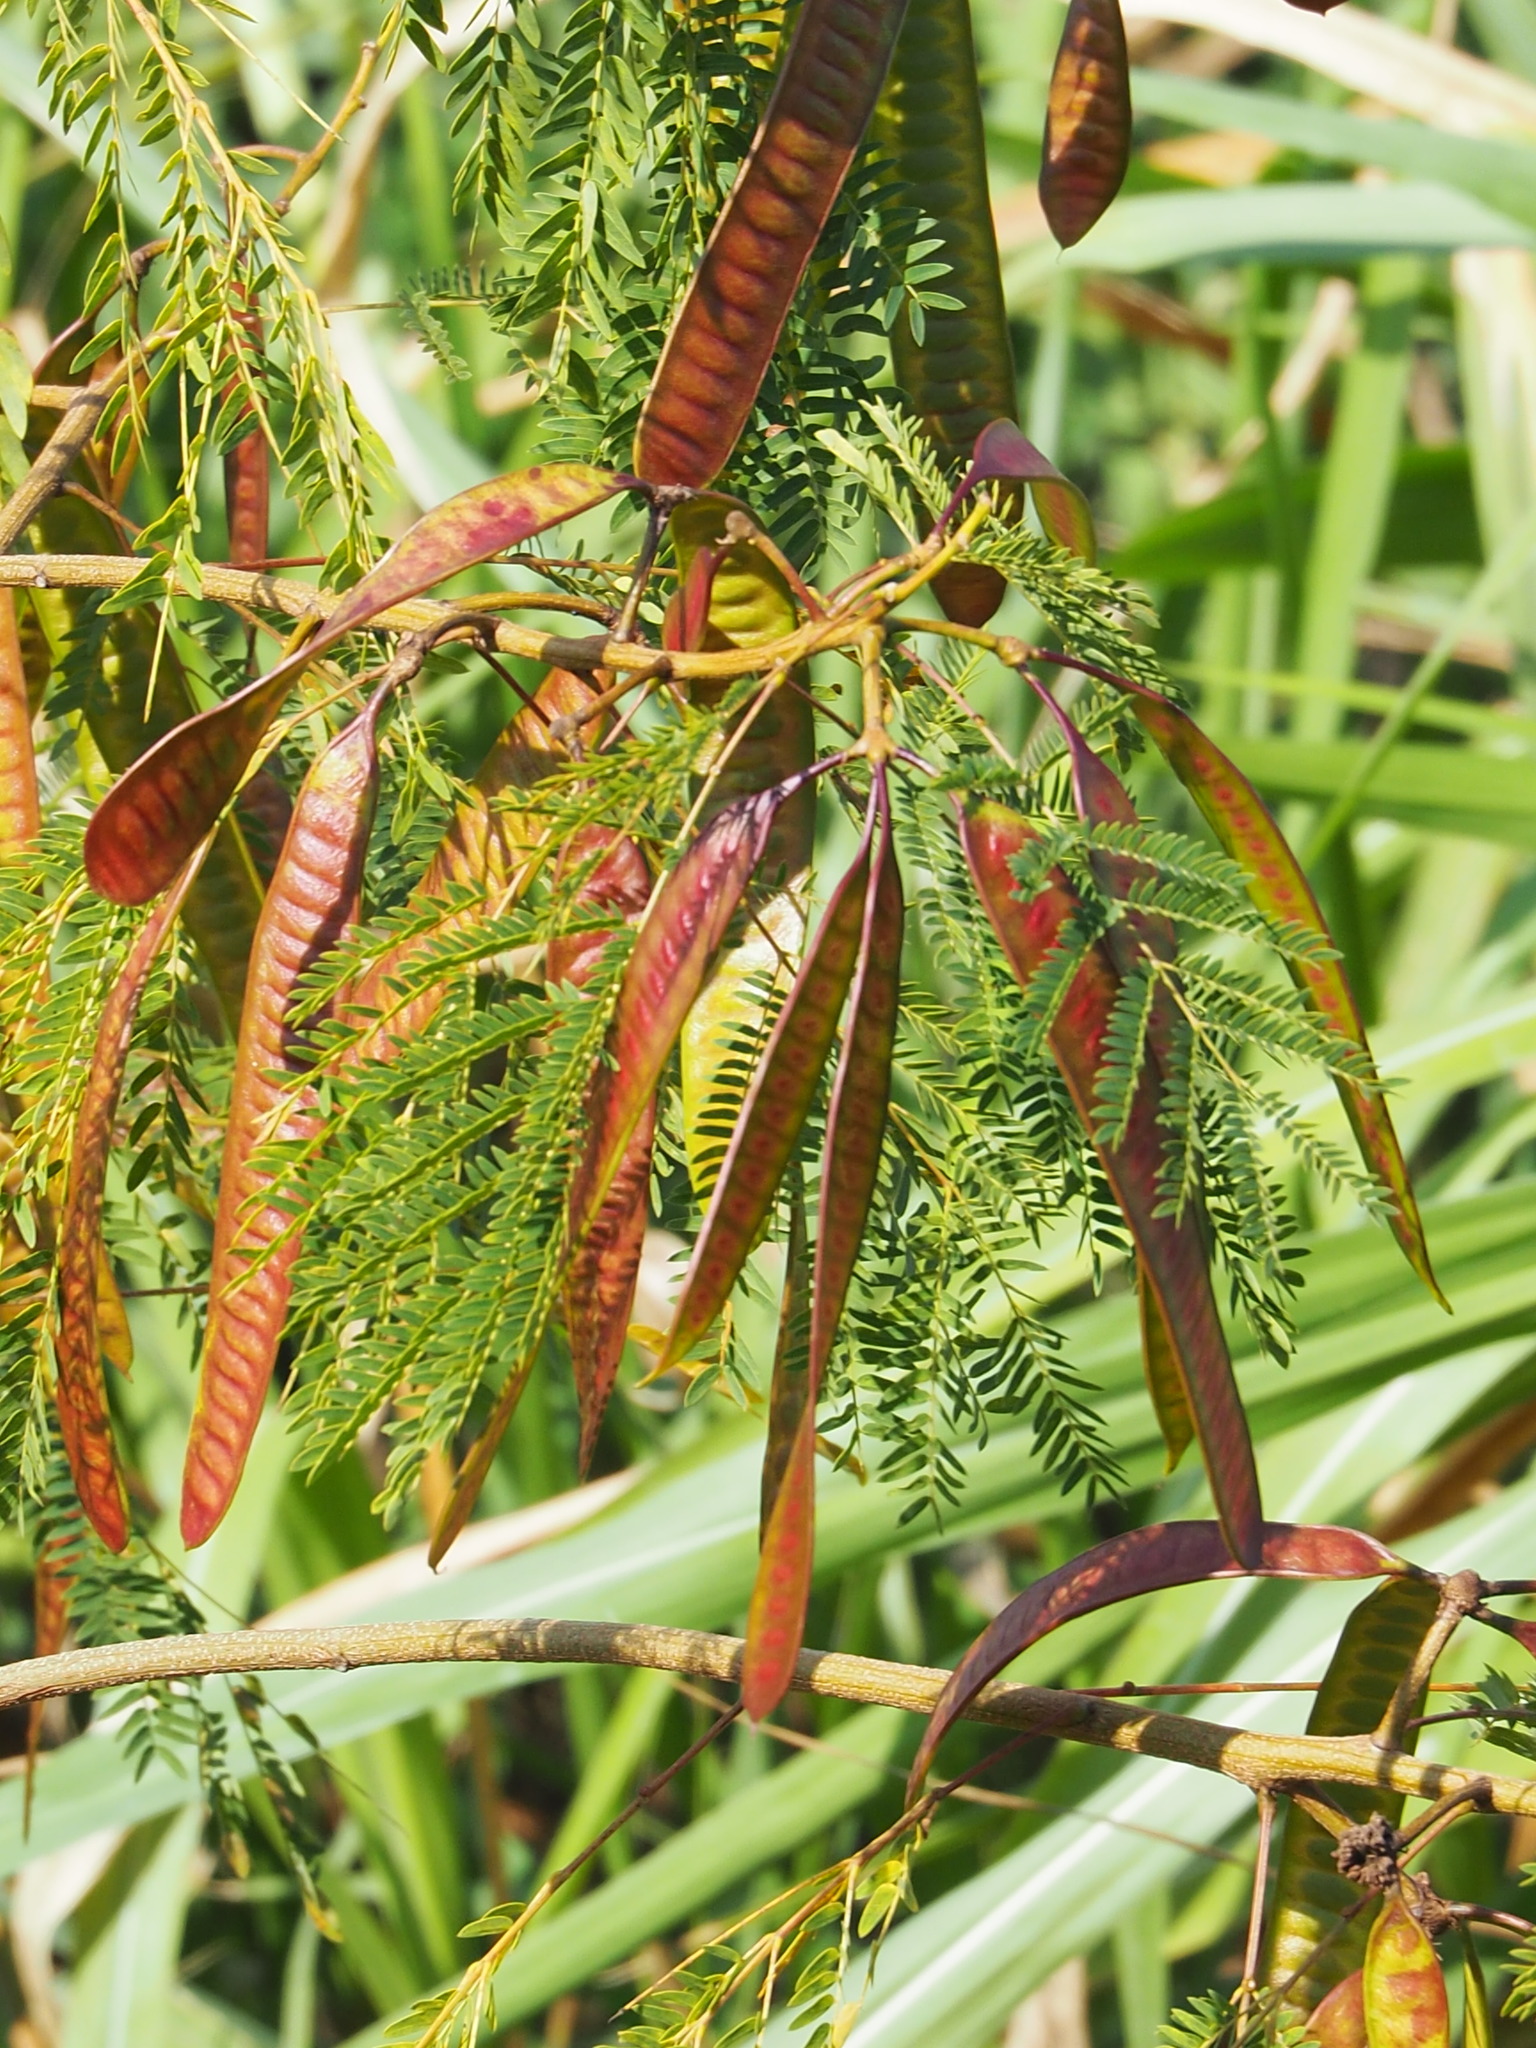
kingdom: Plantae
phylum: Tracheophyta
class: Magnoliopsida
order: Fabales
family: Fabaceae
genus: Leucaena
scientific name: Leucaena leucocephala
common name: White leadtree
